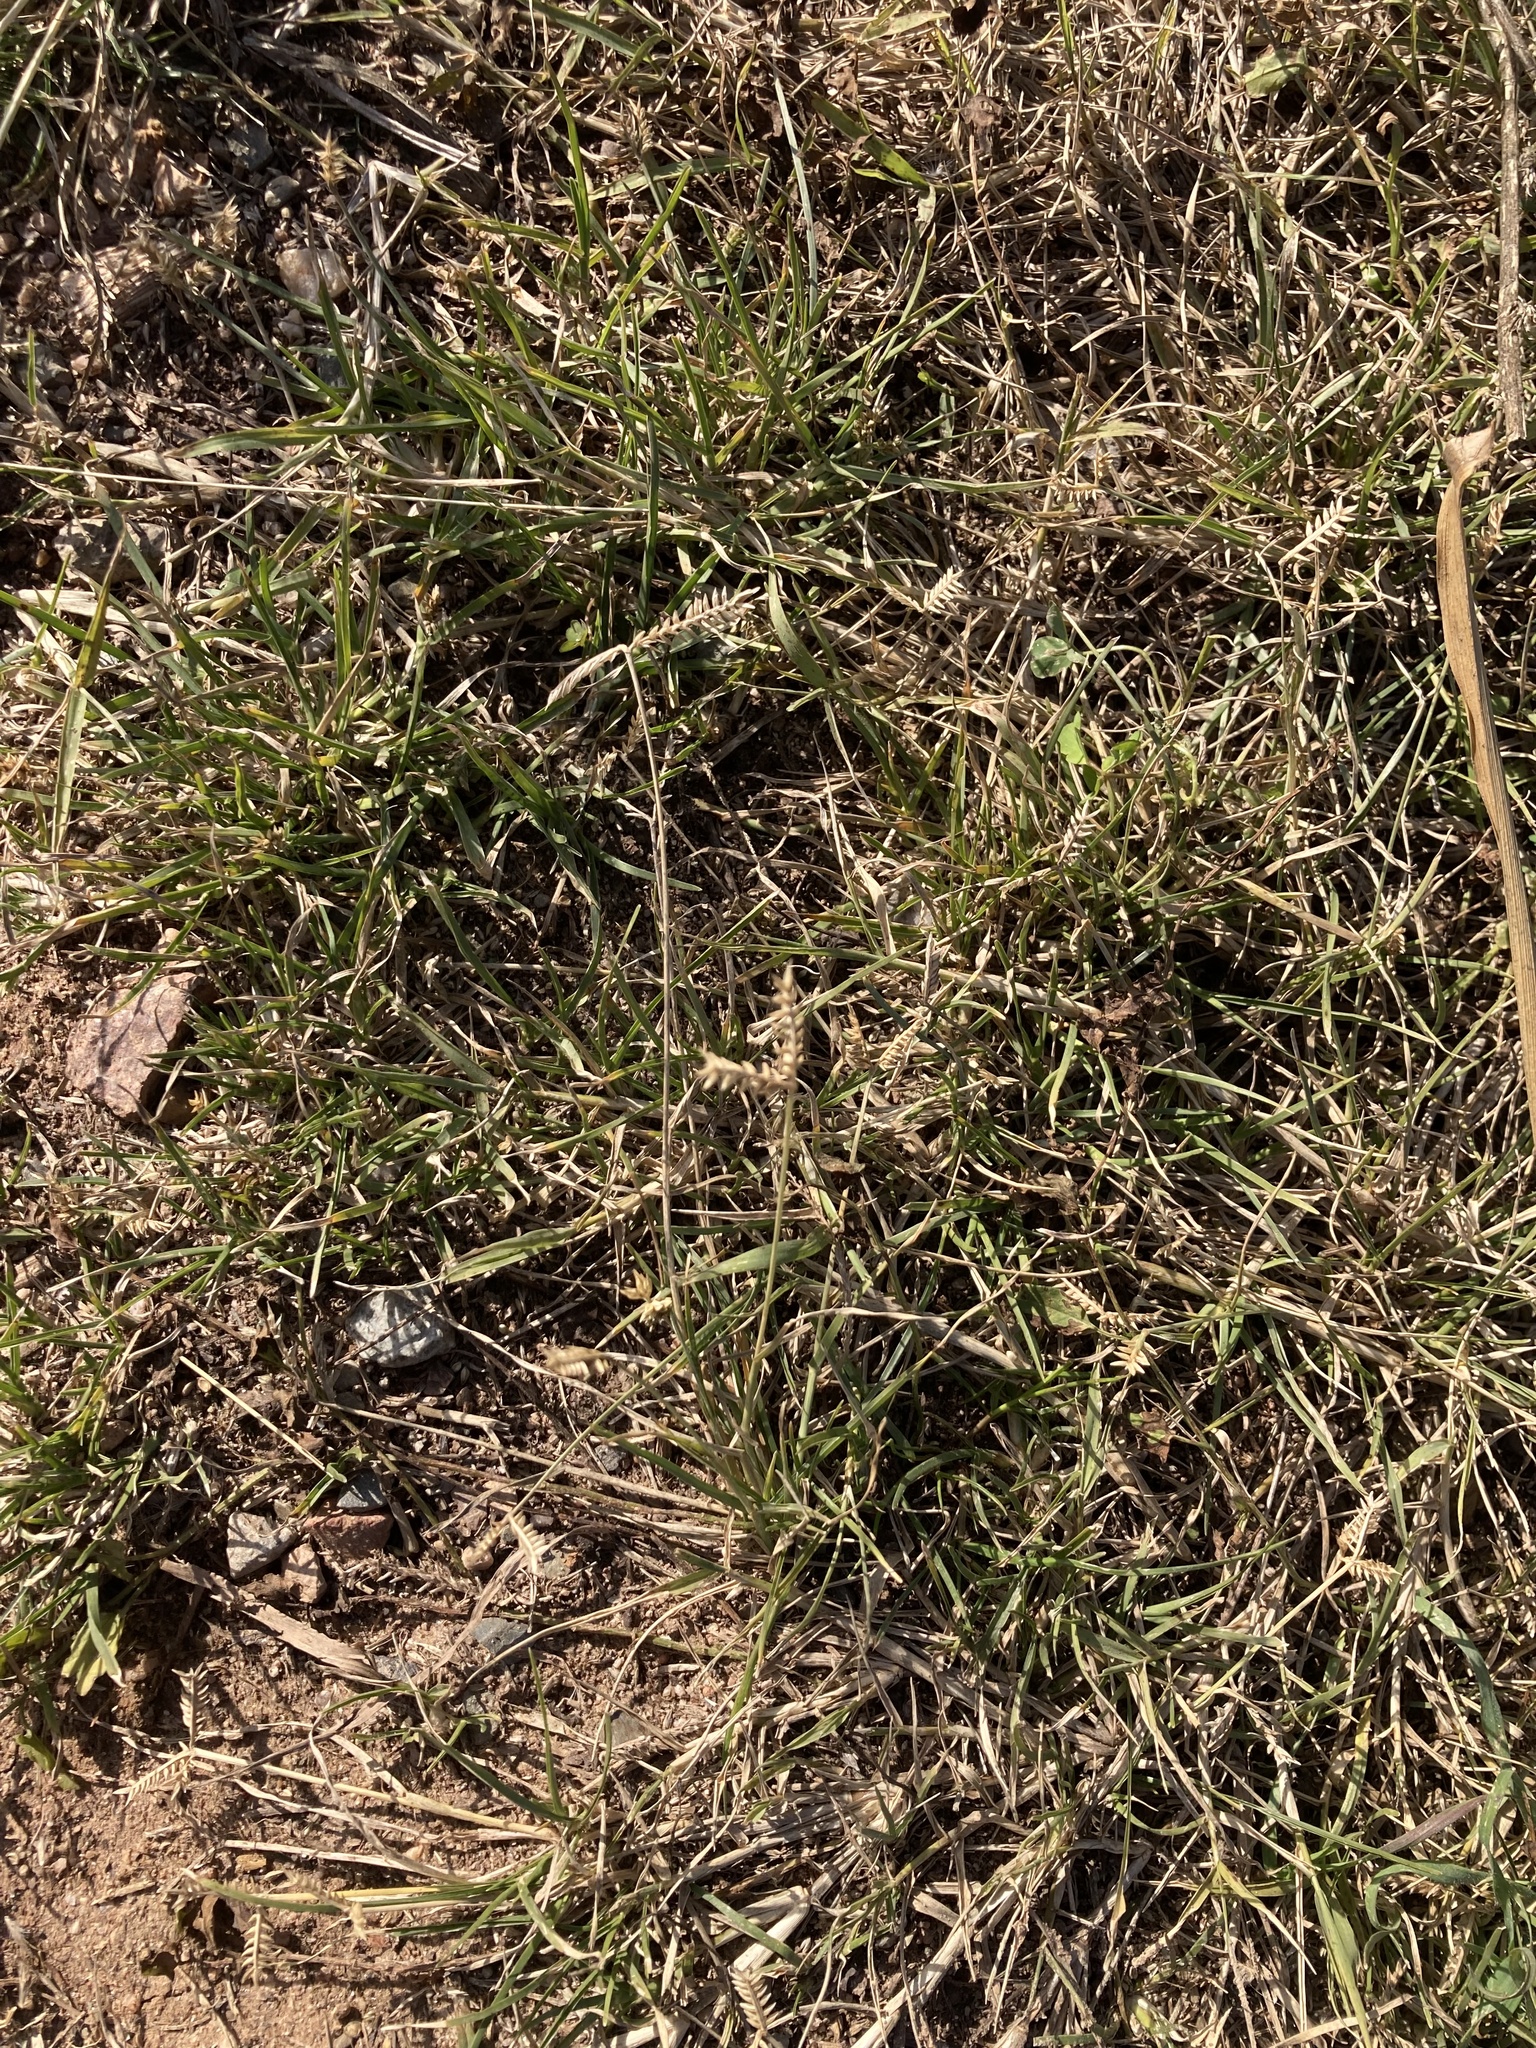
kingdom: Plantae
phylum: Tracheophyta
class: Liliopsida
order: Poales
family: Poaceae
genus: Eleusine
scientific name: Eleusine tristachya
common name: American yard-grass
